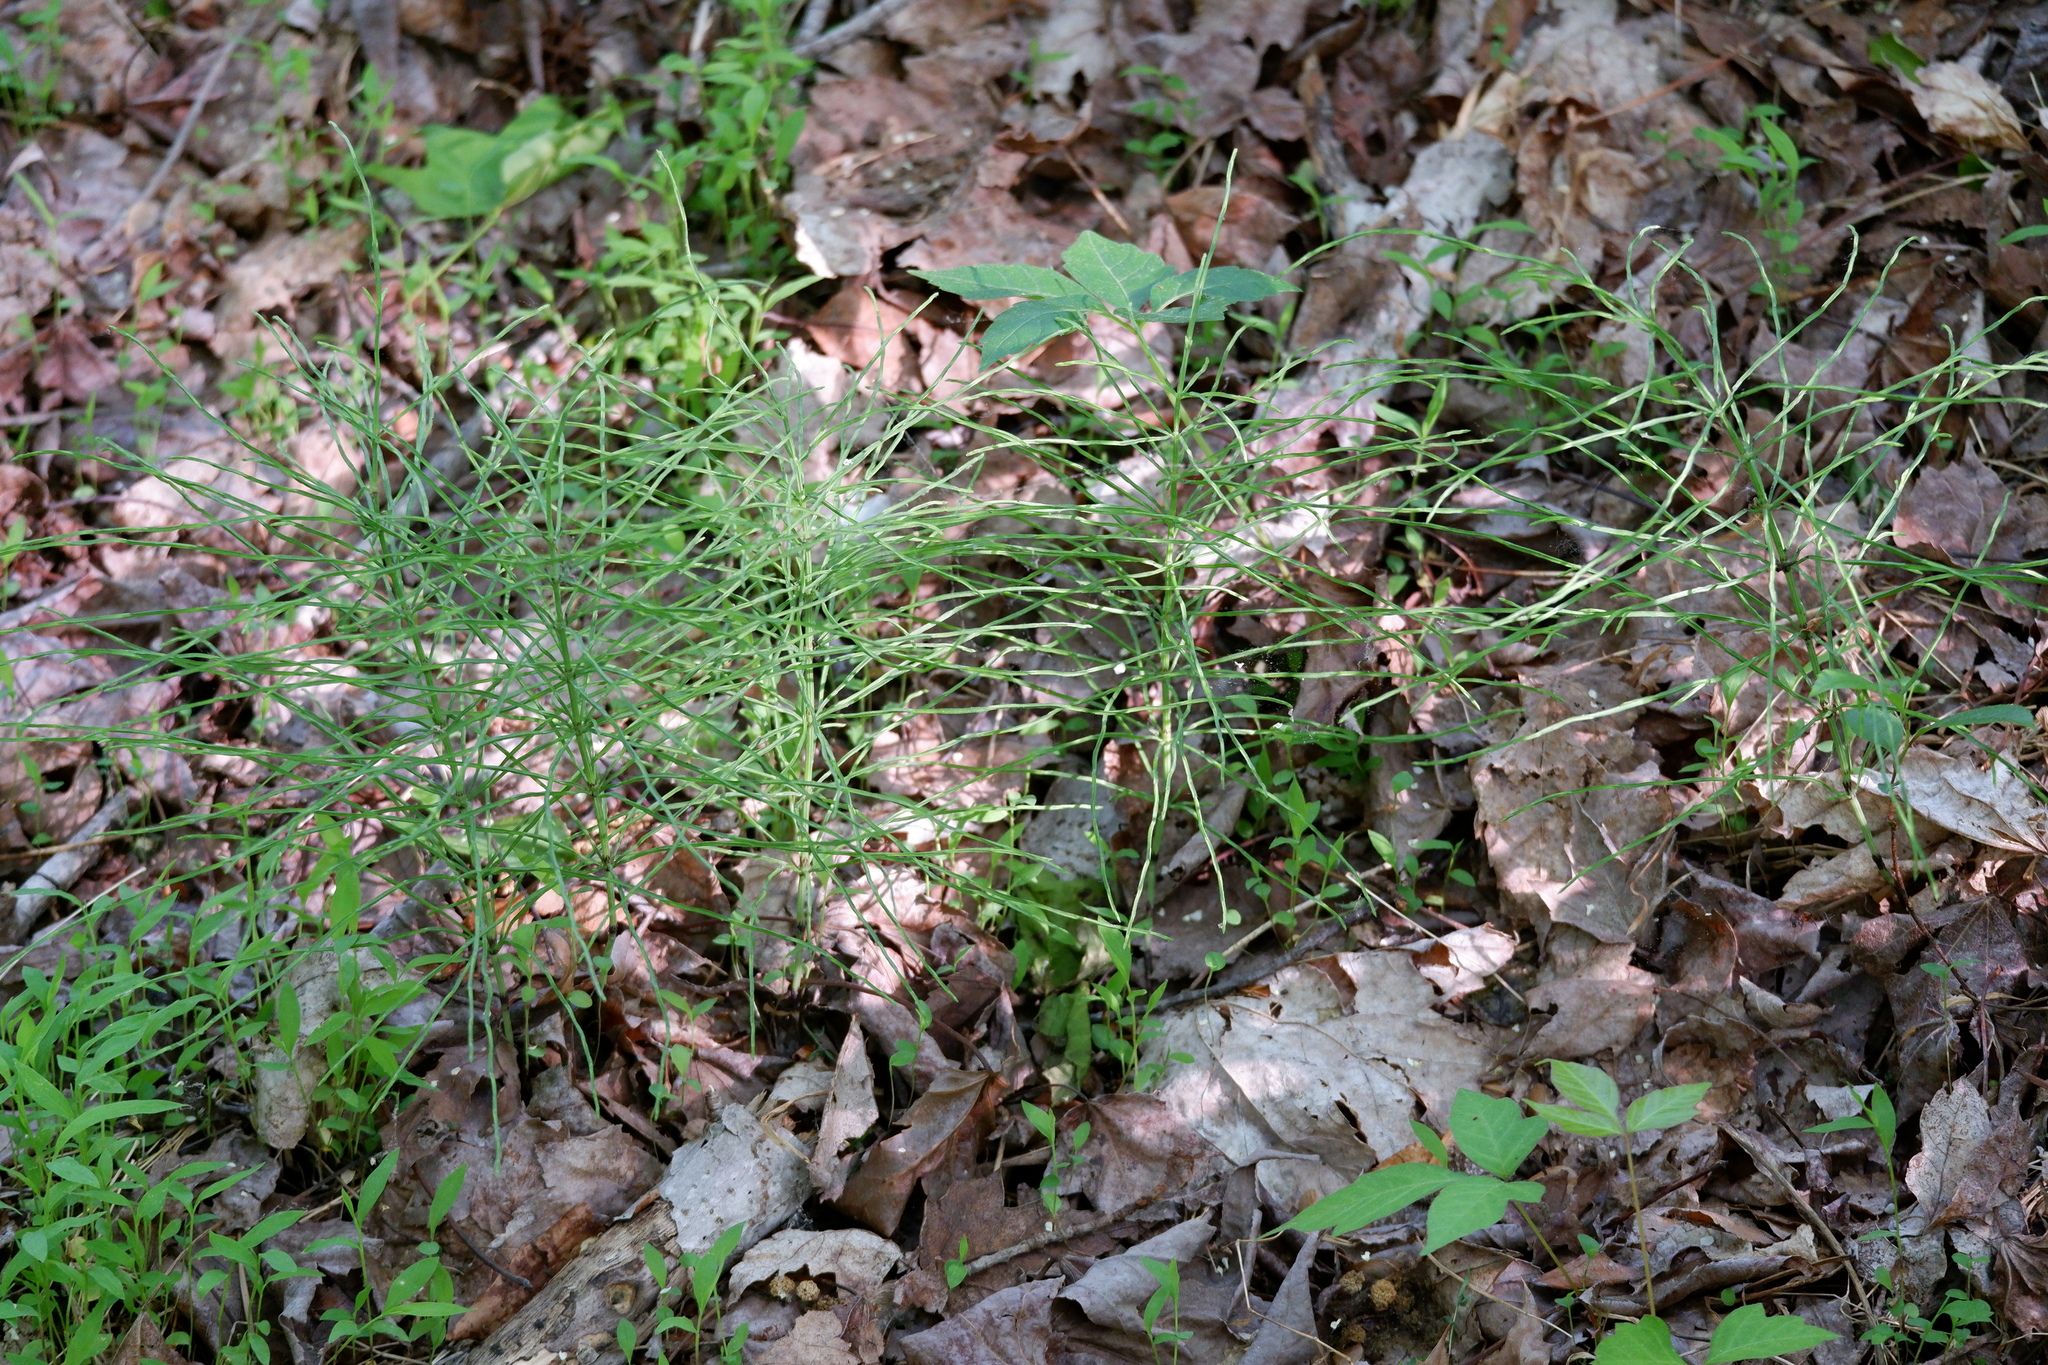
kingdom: Plantae
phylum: Tracheophyta
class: Polypodiopsida
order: Equisetales
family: Equisetaceae
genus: Equisetum
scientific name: Equisetum arvense
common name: Field horsetail
